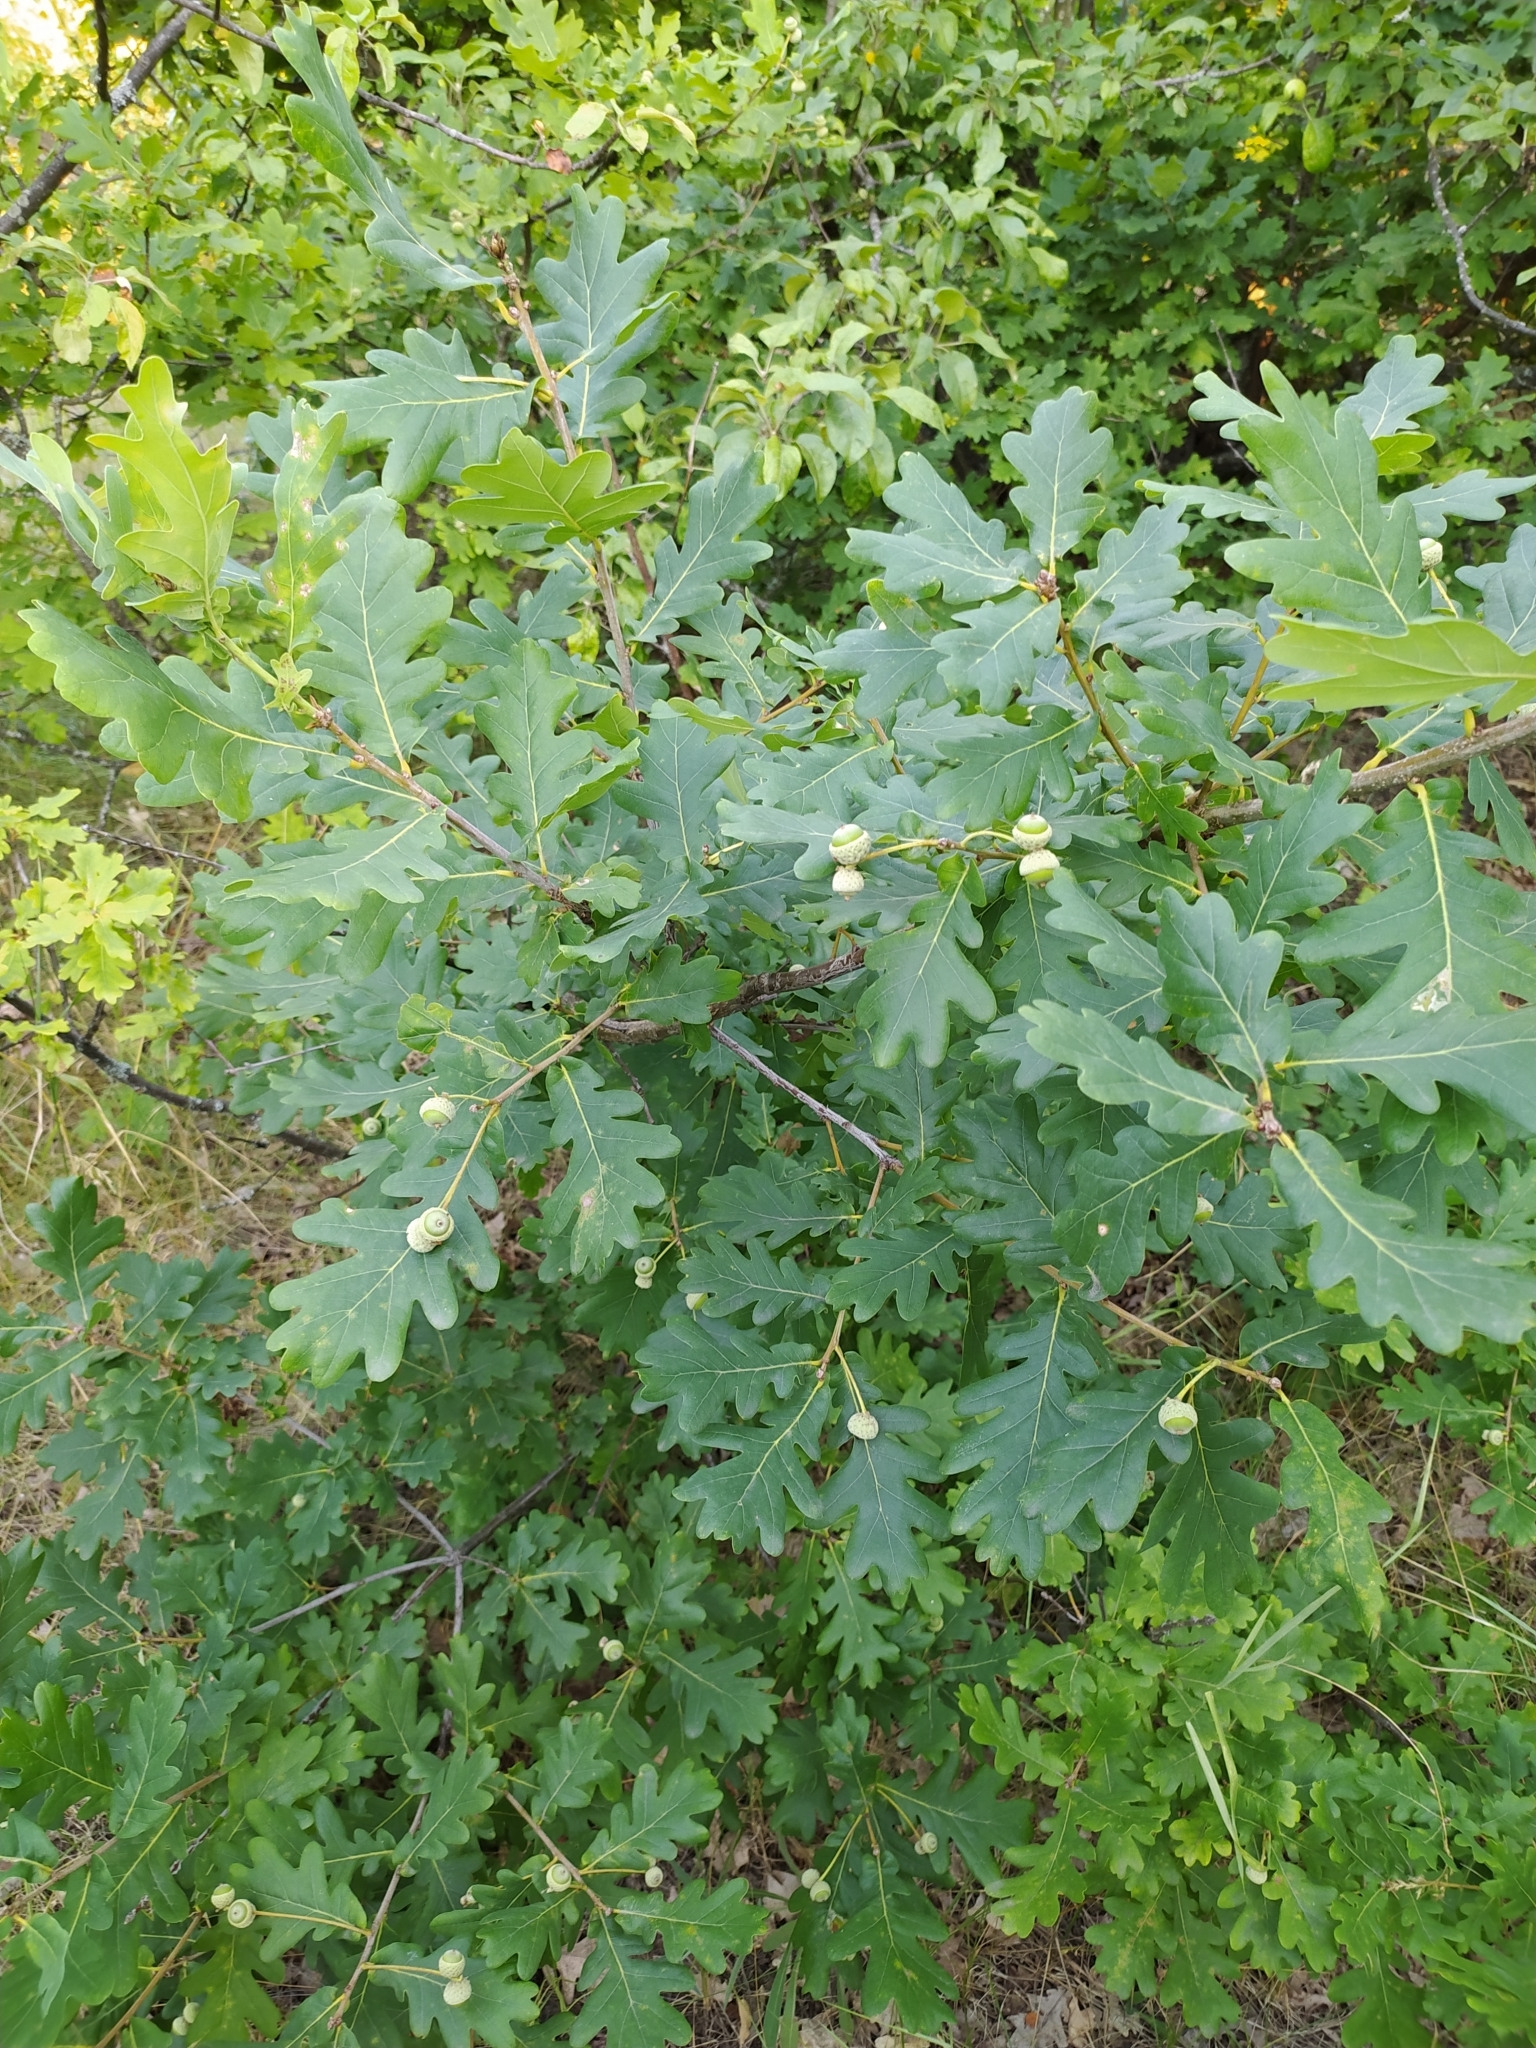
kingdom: Plantae
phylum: Tracheophyta
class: Magnoliopsida
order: Fagales
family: Fagaceae
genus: Quercus
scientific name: Quercus robur
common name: Pedunculate oak
